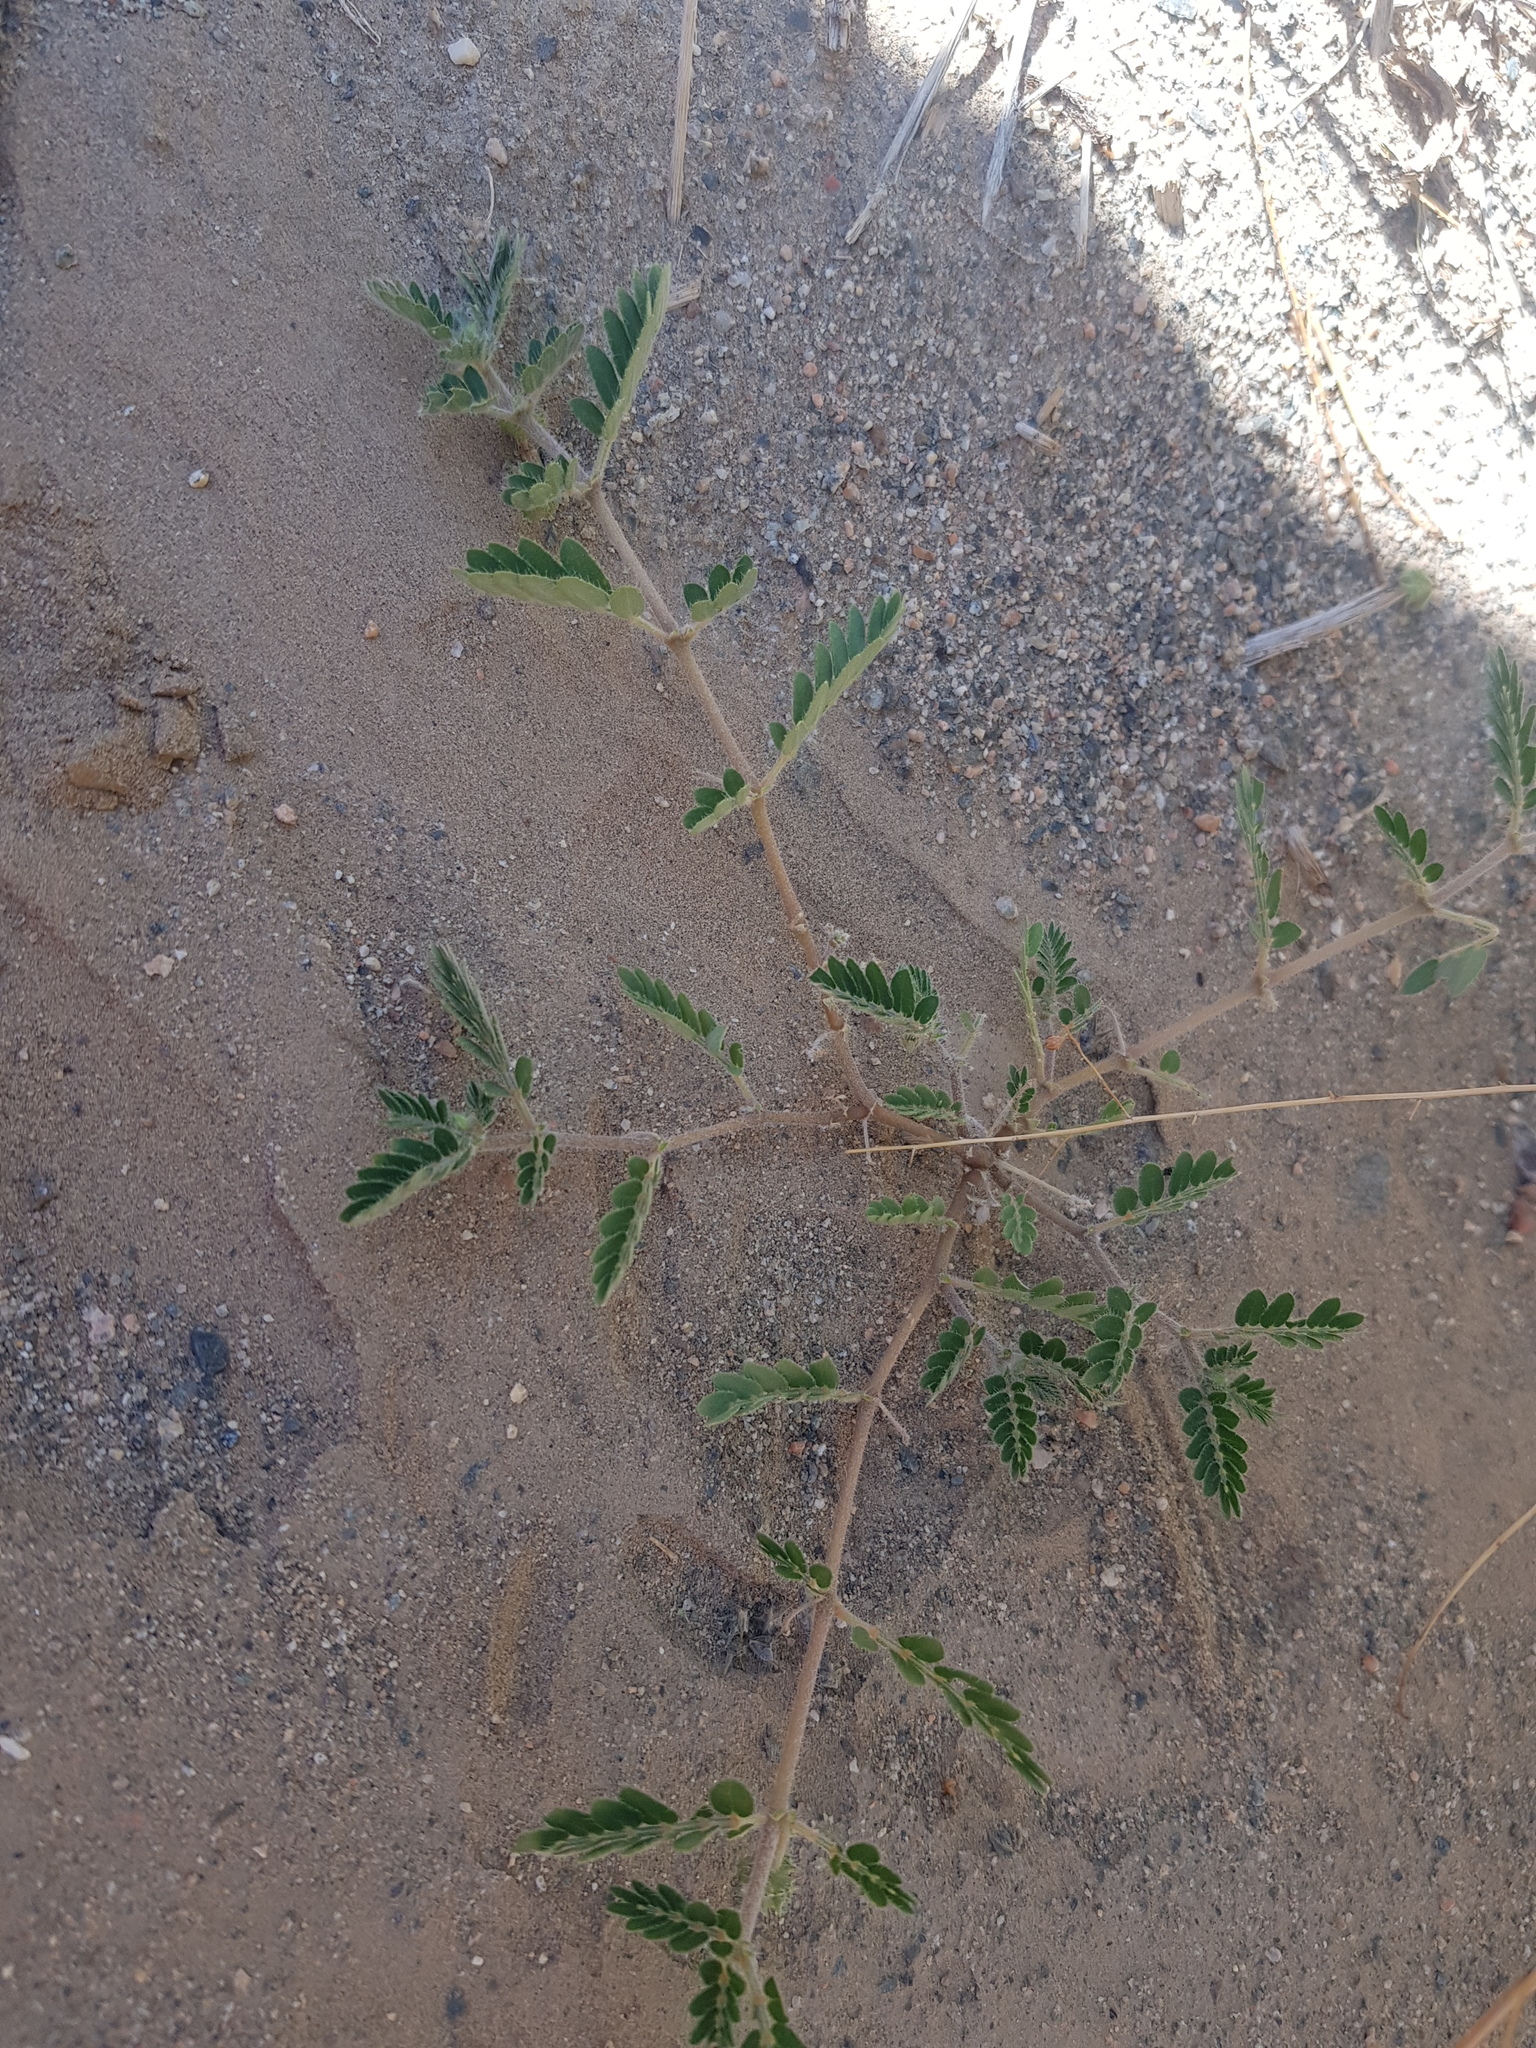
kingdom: Plantae
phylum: Tracheophyta
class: Magnoliopsida
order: Zygophyllales
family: Zygophyllaceae
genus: Tribulus
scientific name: Tribulus terrestris
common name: Puncturevine
